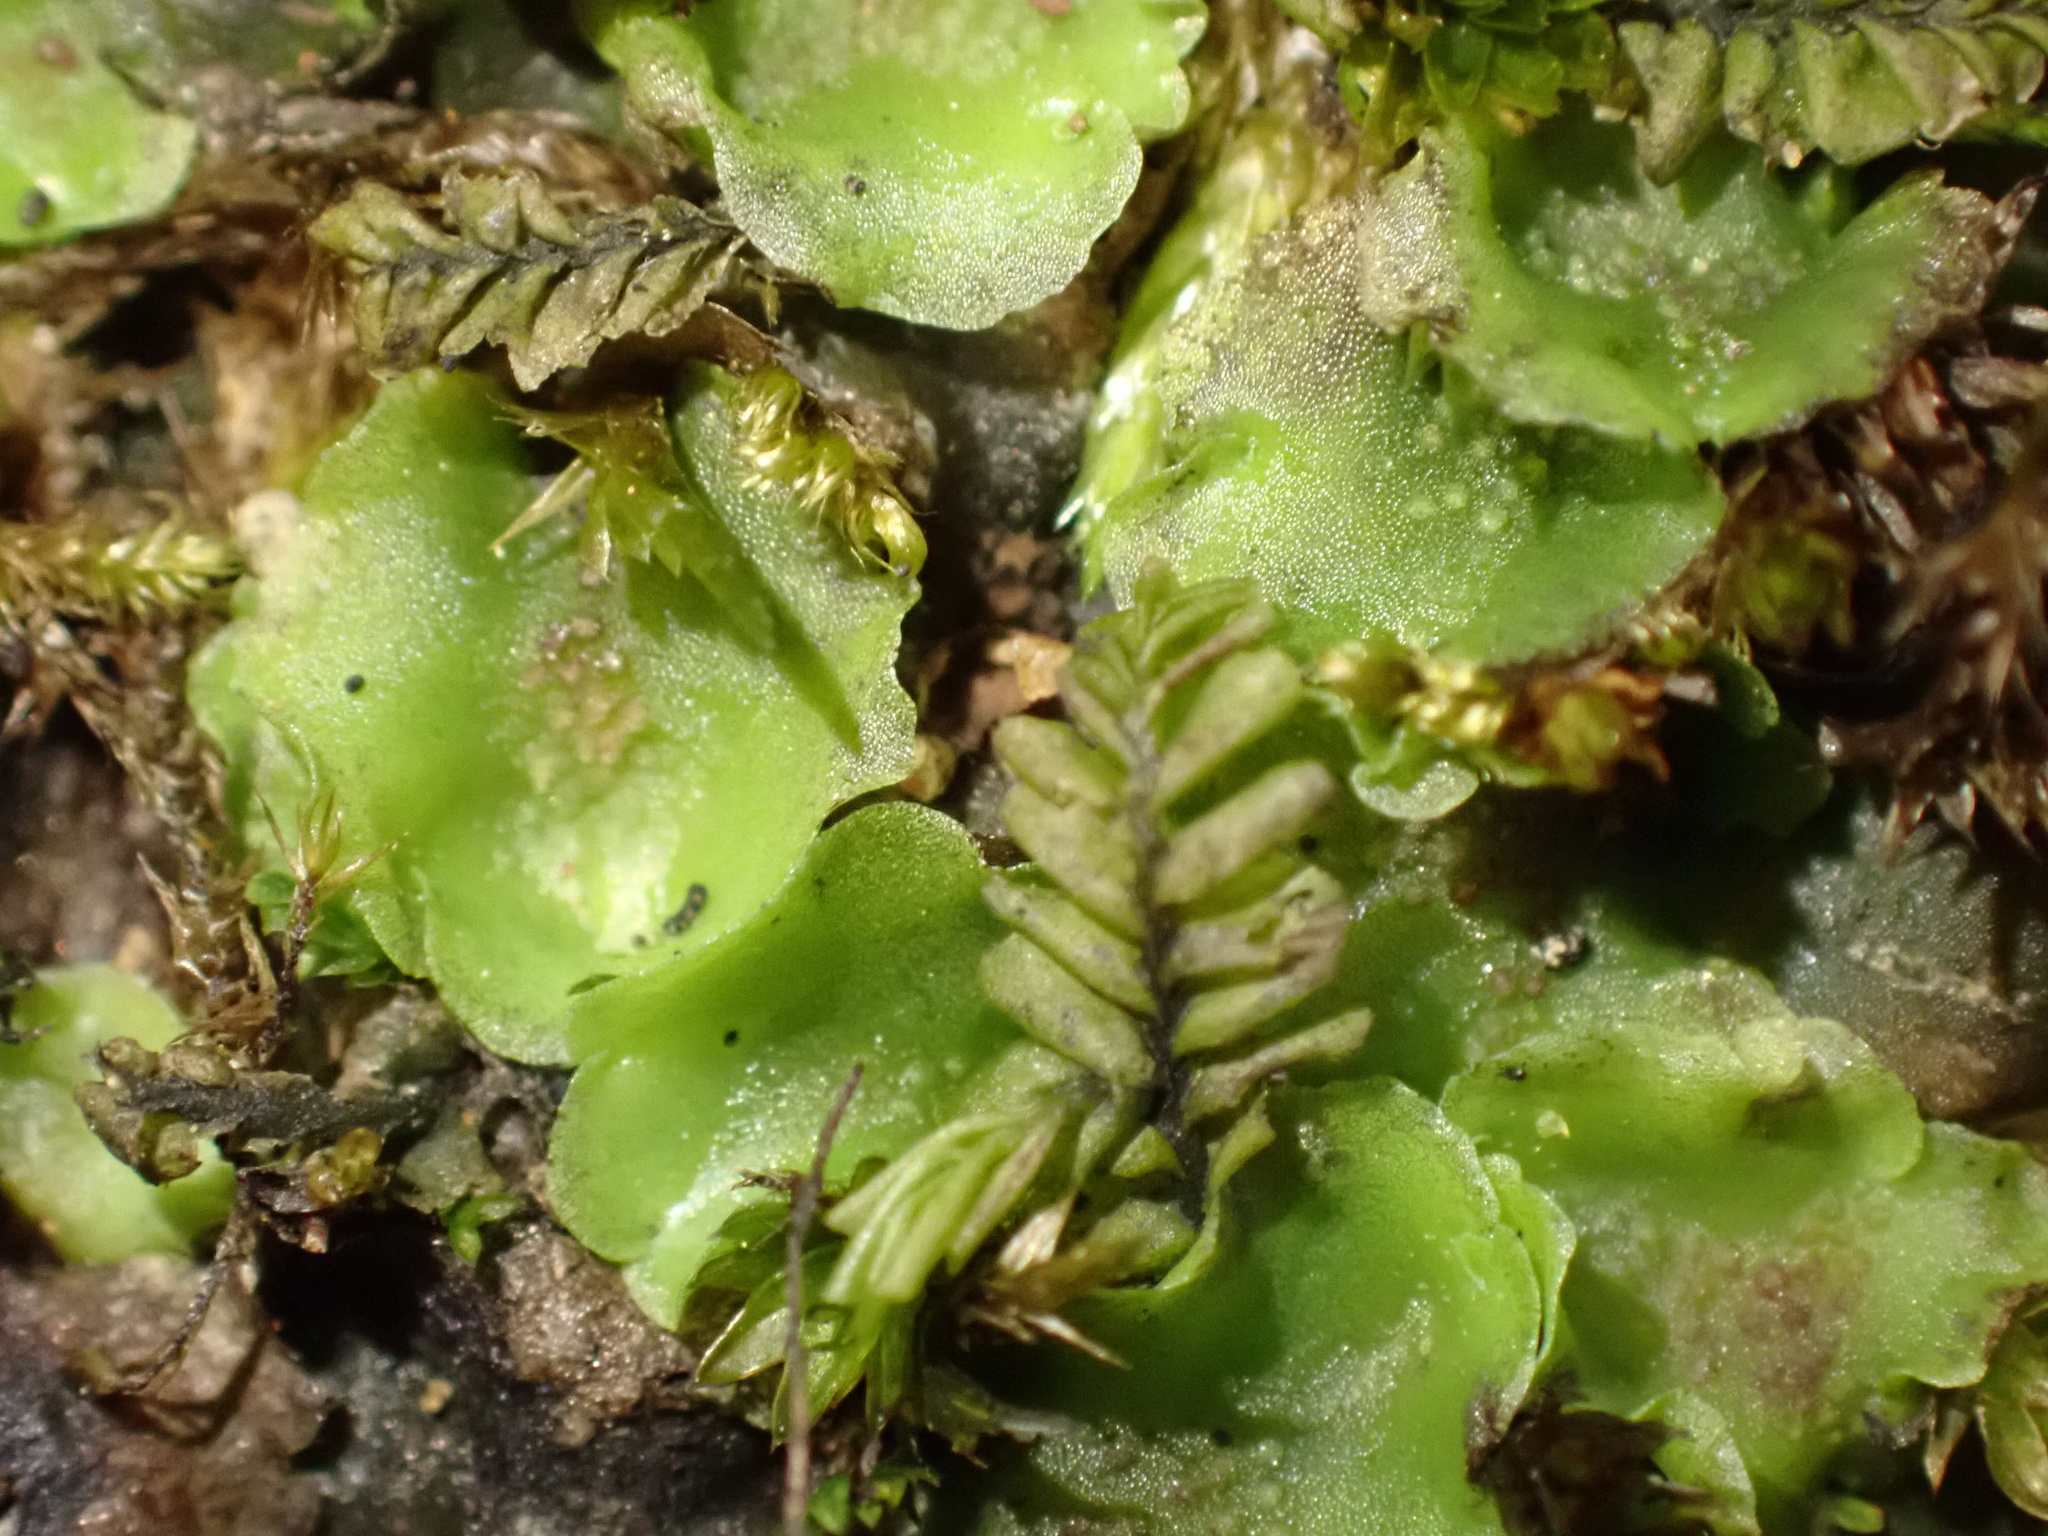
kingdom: Plantae
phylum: Marchantiophyta
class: Jungermanniopsida
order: Jungermanniales
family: Plagiochilaceae
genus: Plagiochila
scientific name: Plagiochila porelloides
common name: Lesser featherwort
